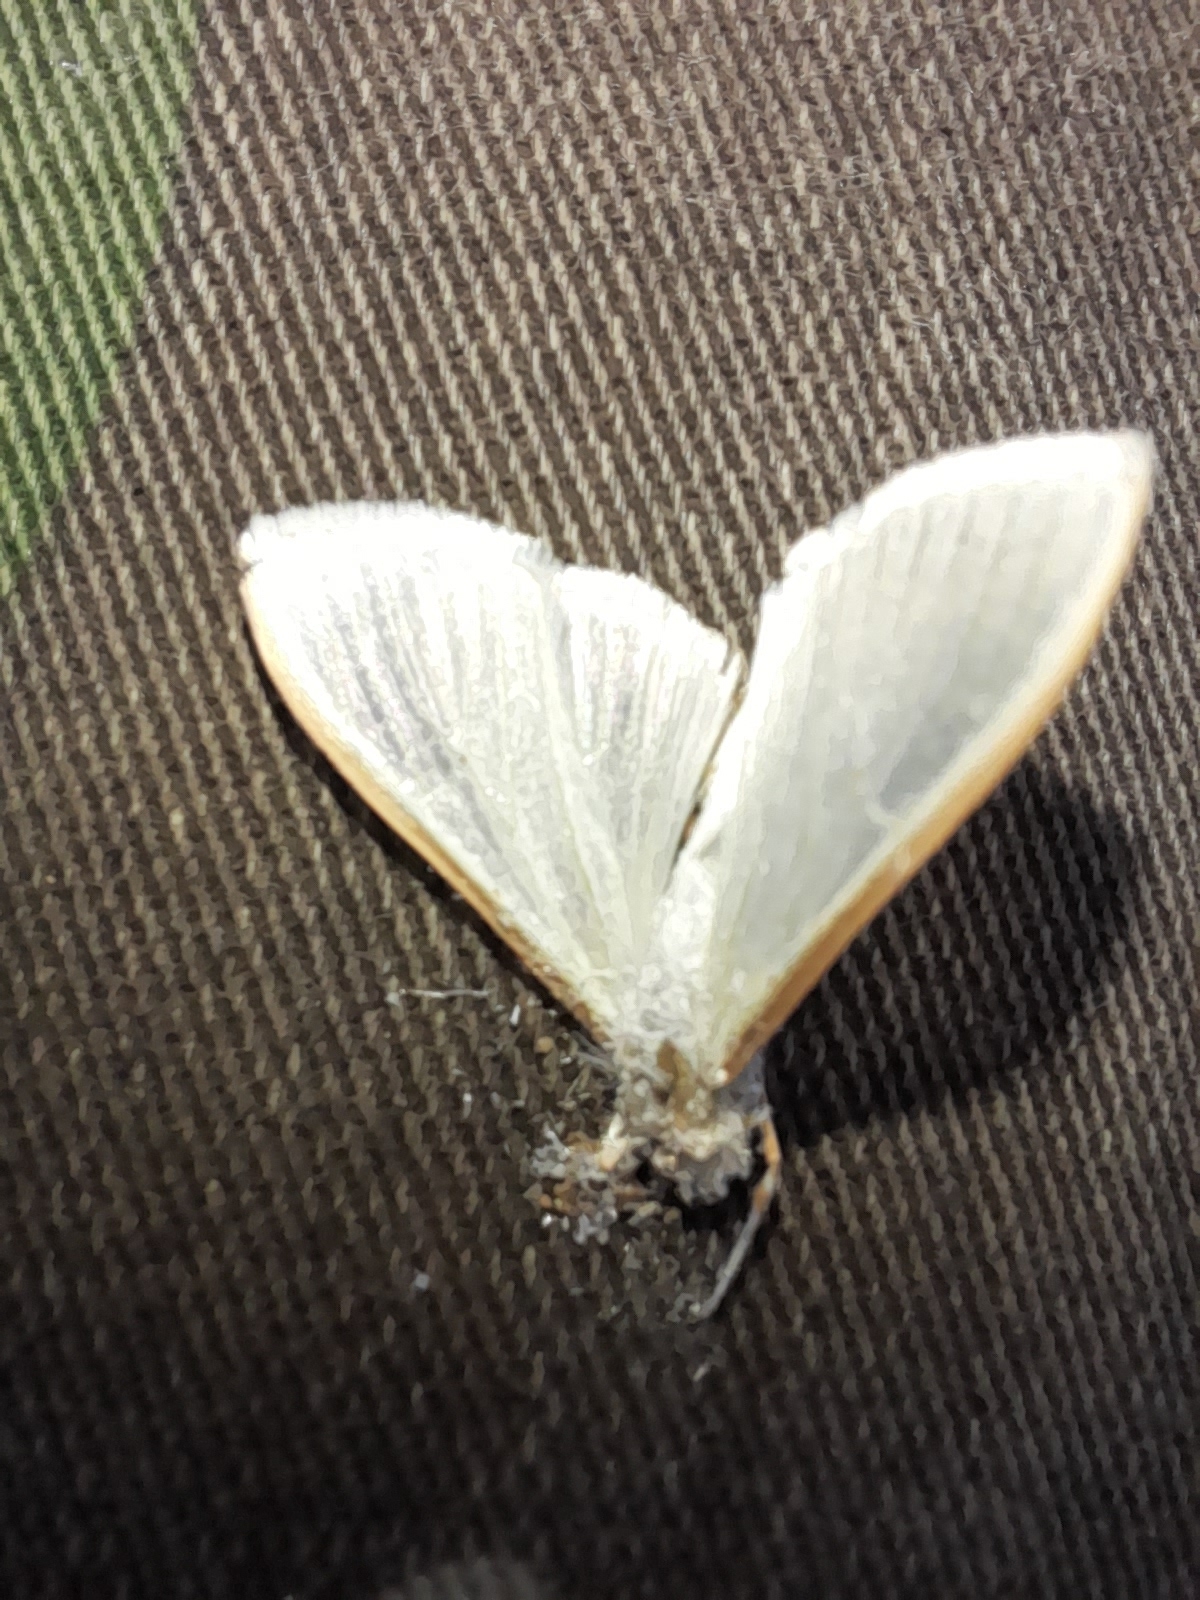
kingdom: Animalia
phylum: Arthropoda
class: Insecta
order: Lepidoptera
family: Crambidae
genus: Palpita
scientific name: Palpita vitrealis
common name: Olive-tree pearl
